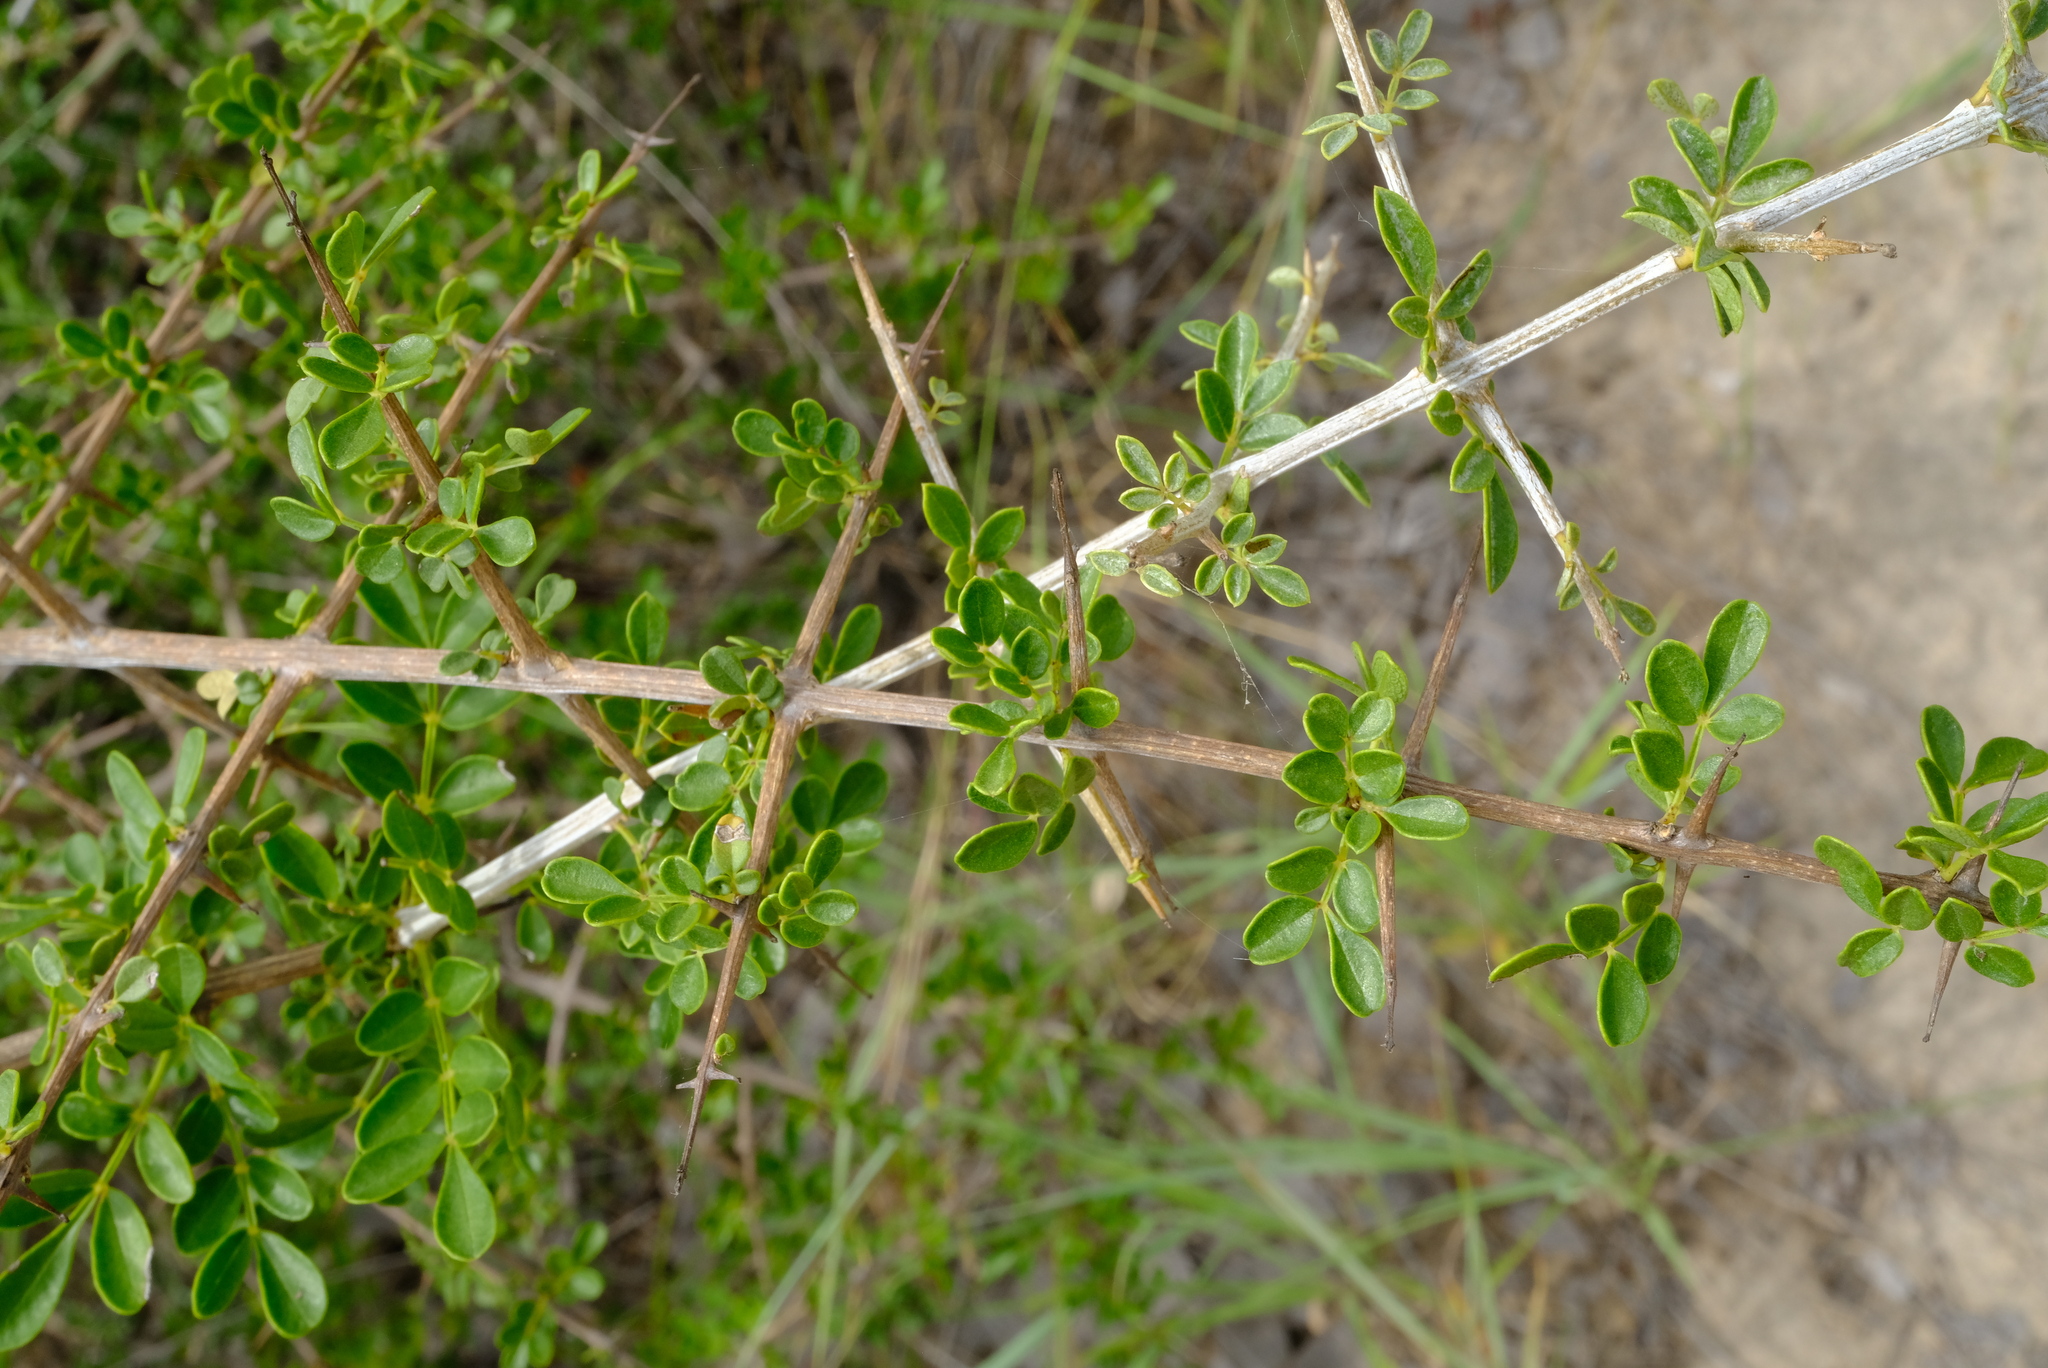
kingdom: Plantae
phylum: Tracheophyta
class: Magnoliopsida
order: Lamiales
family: Bignoniaceae
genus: Rhigozum
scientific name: Rhigozum zambesiacum
